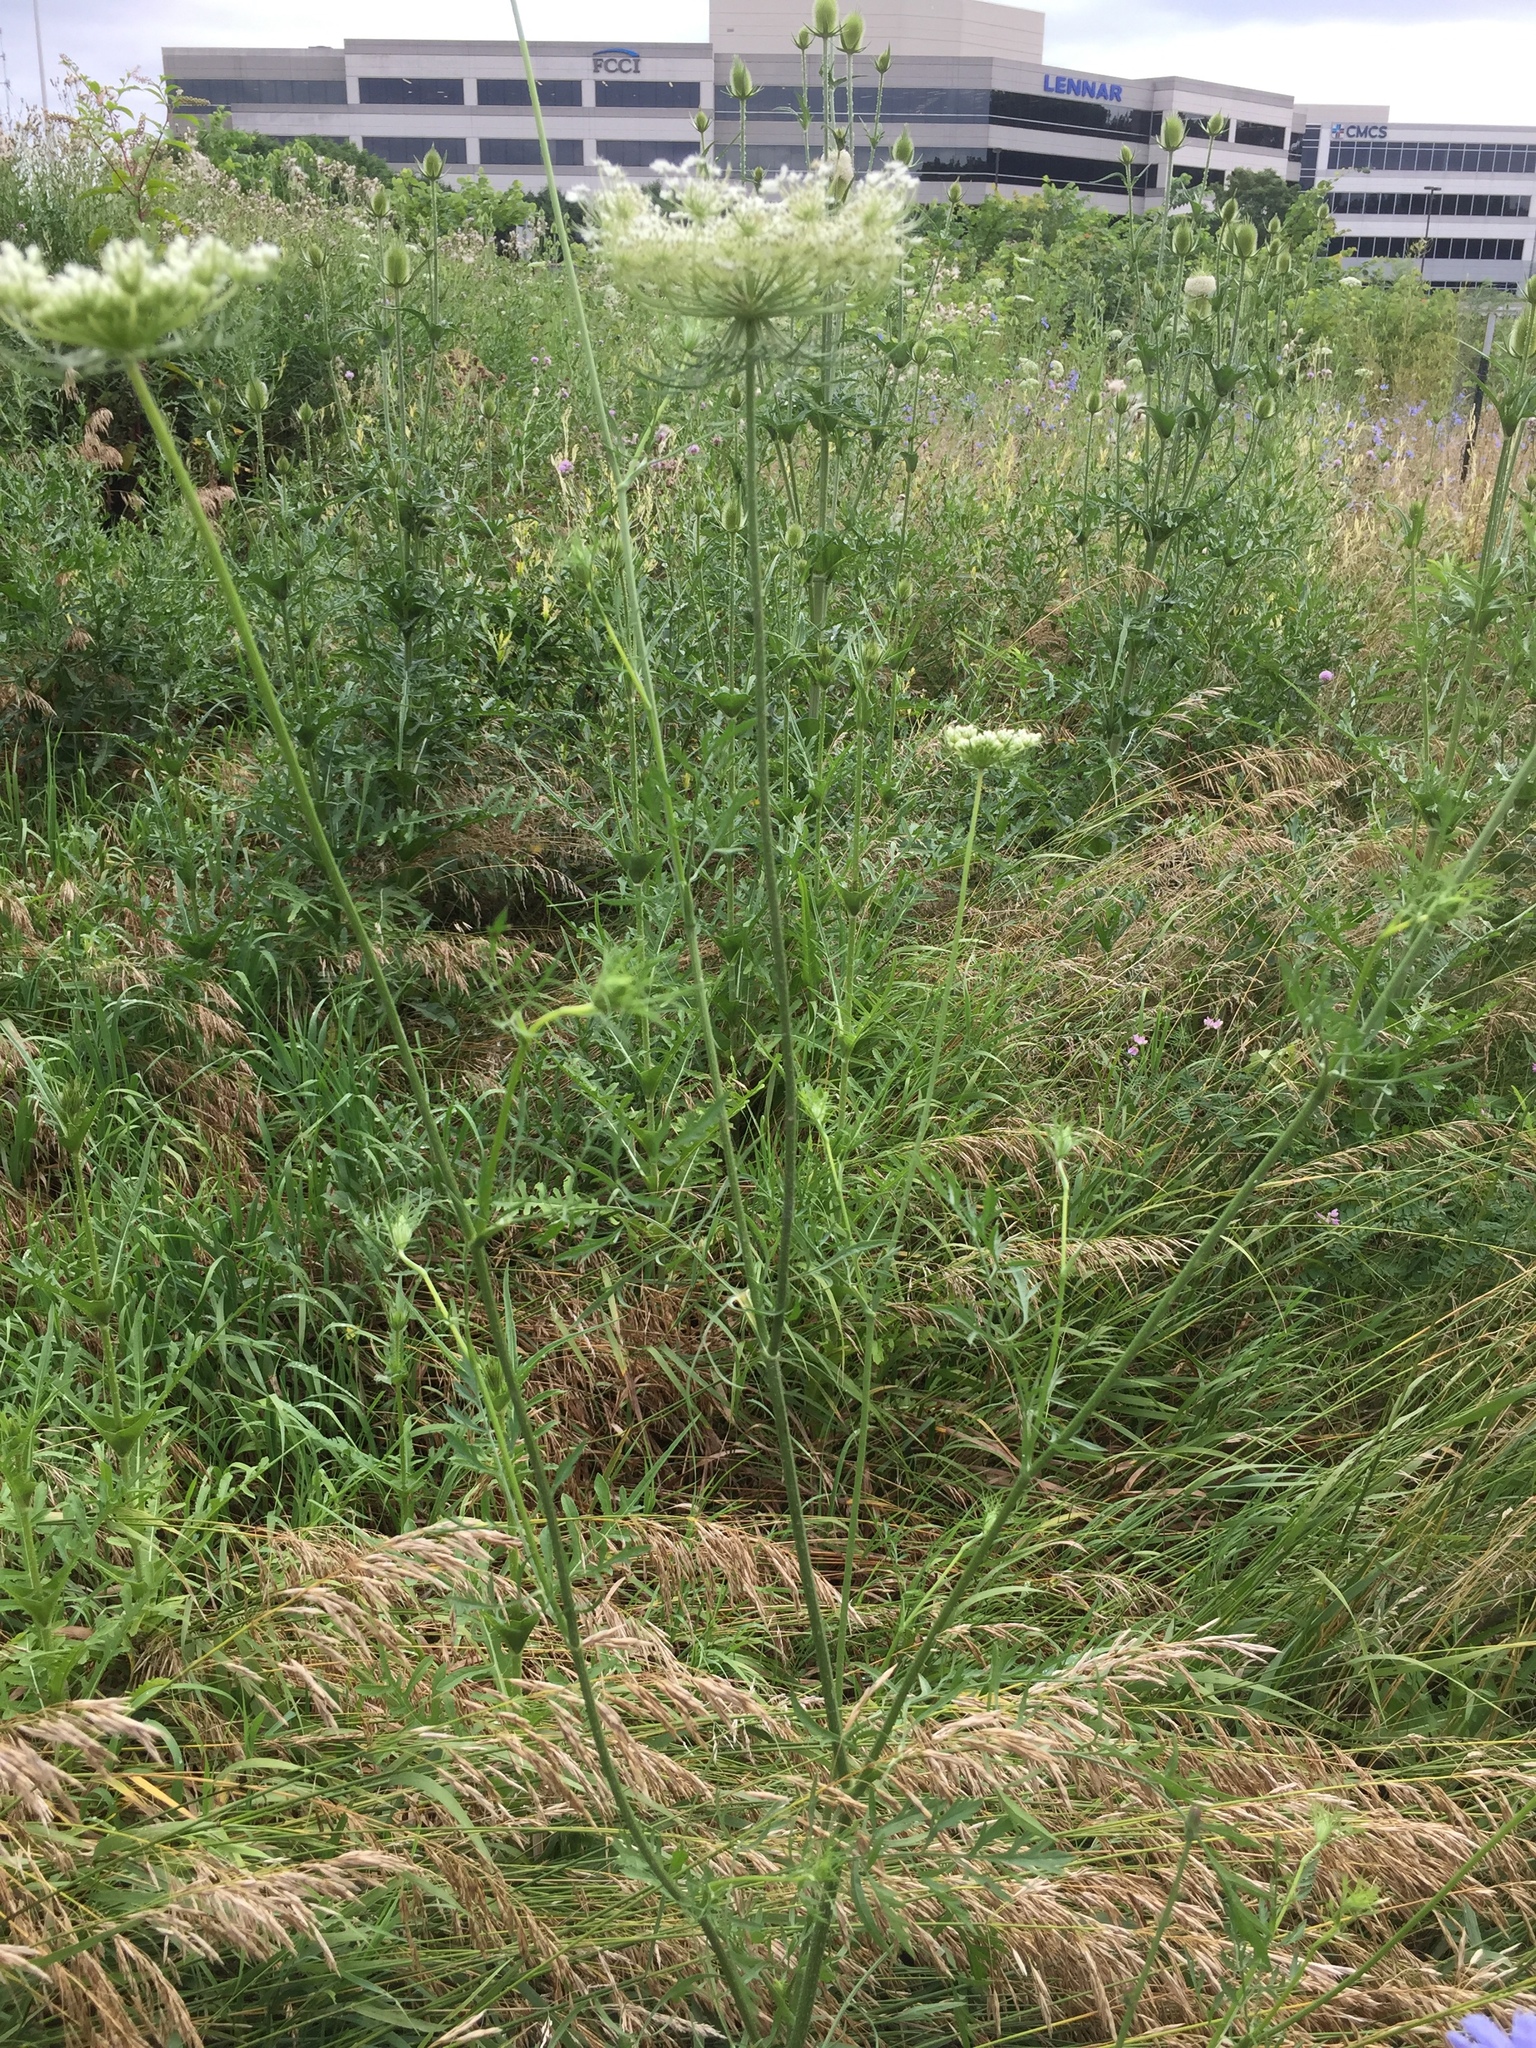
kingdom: Plantae
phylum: Tracheophyta
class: Magnoliopsida
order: Apiales
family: Apiaceae
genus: Daucus
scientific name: Daucus carota
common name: Wild carrot
